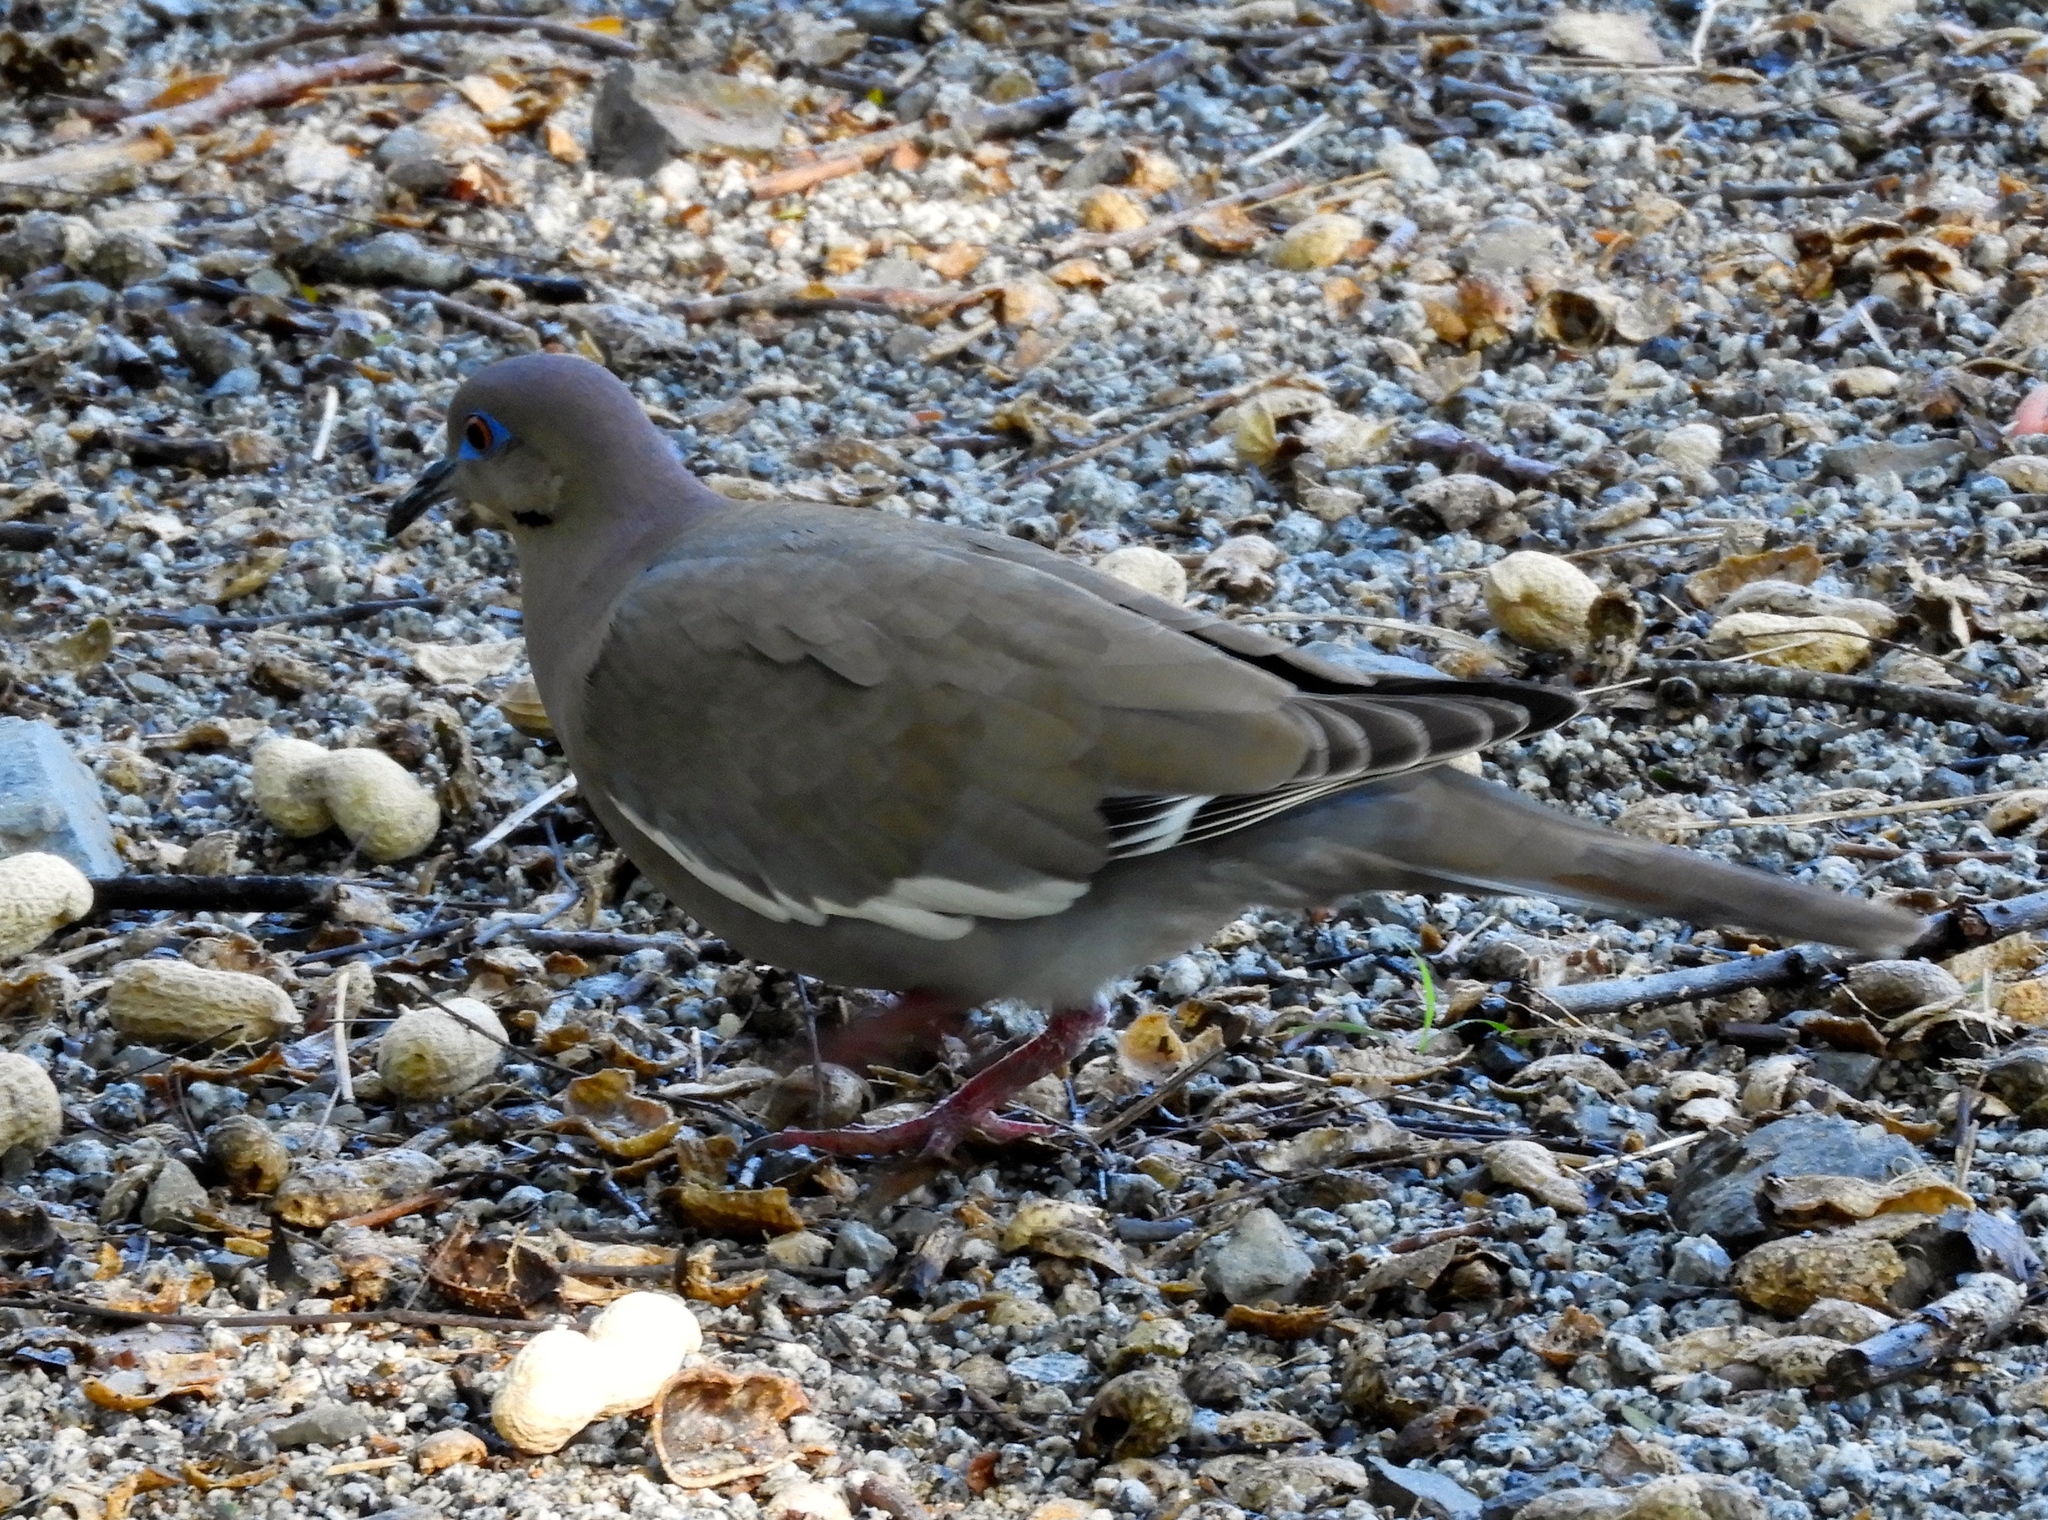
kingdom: Animalia
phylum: Chordata
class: Aves
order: Columbiformes
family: Columbidae
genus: Zenaida
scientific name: Zenaida asiatica
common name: White-winged dove
